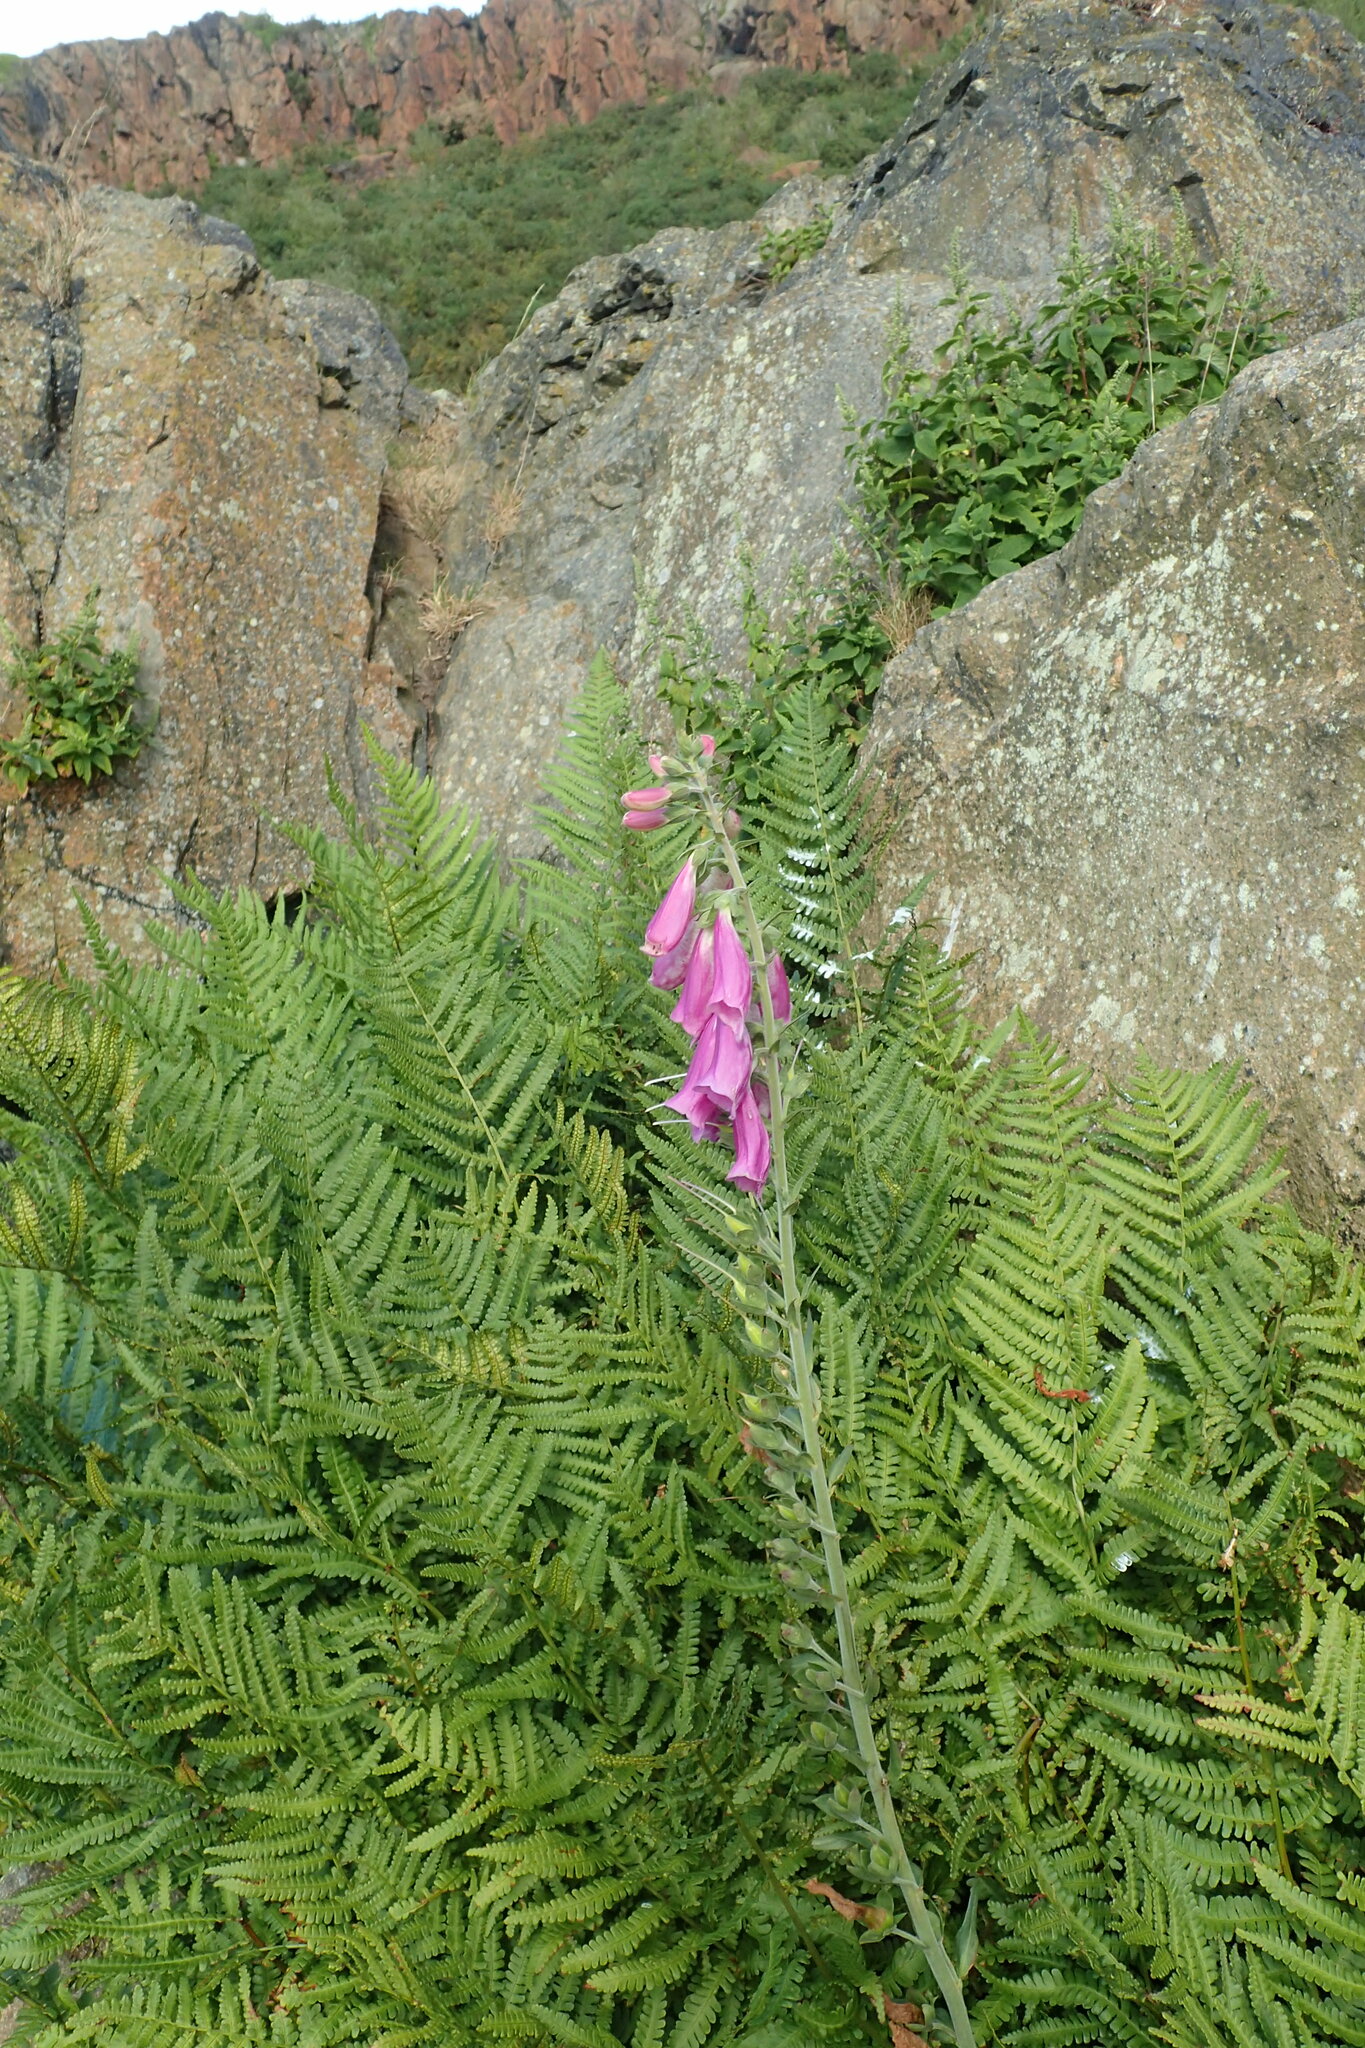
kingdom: Plantae
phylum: Tracheophyta
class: Magnoliopsida
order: Lamiales
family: Plantaginaceae
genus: Digitalis
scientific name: Digitalis purpurea
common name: Foxglove
